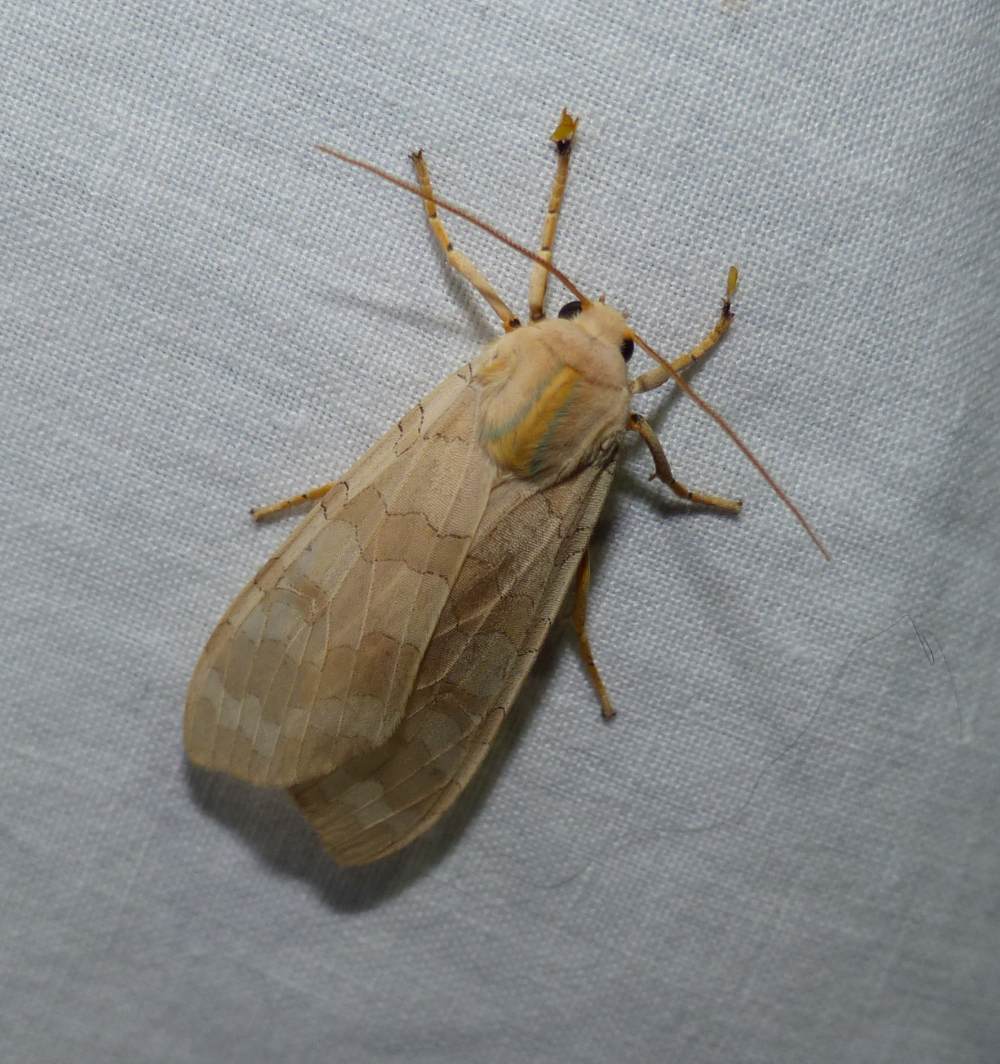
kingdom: Animalia
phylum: Arthropoda
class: Insecta
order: Lepidoptera
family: Erebidae
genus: Halysidota
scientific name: Halysidota tessellaris
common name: Banded tussock moth
